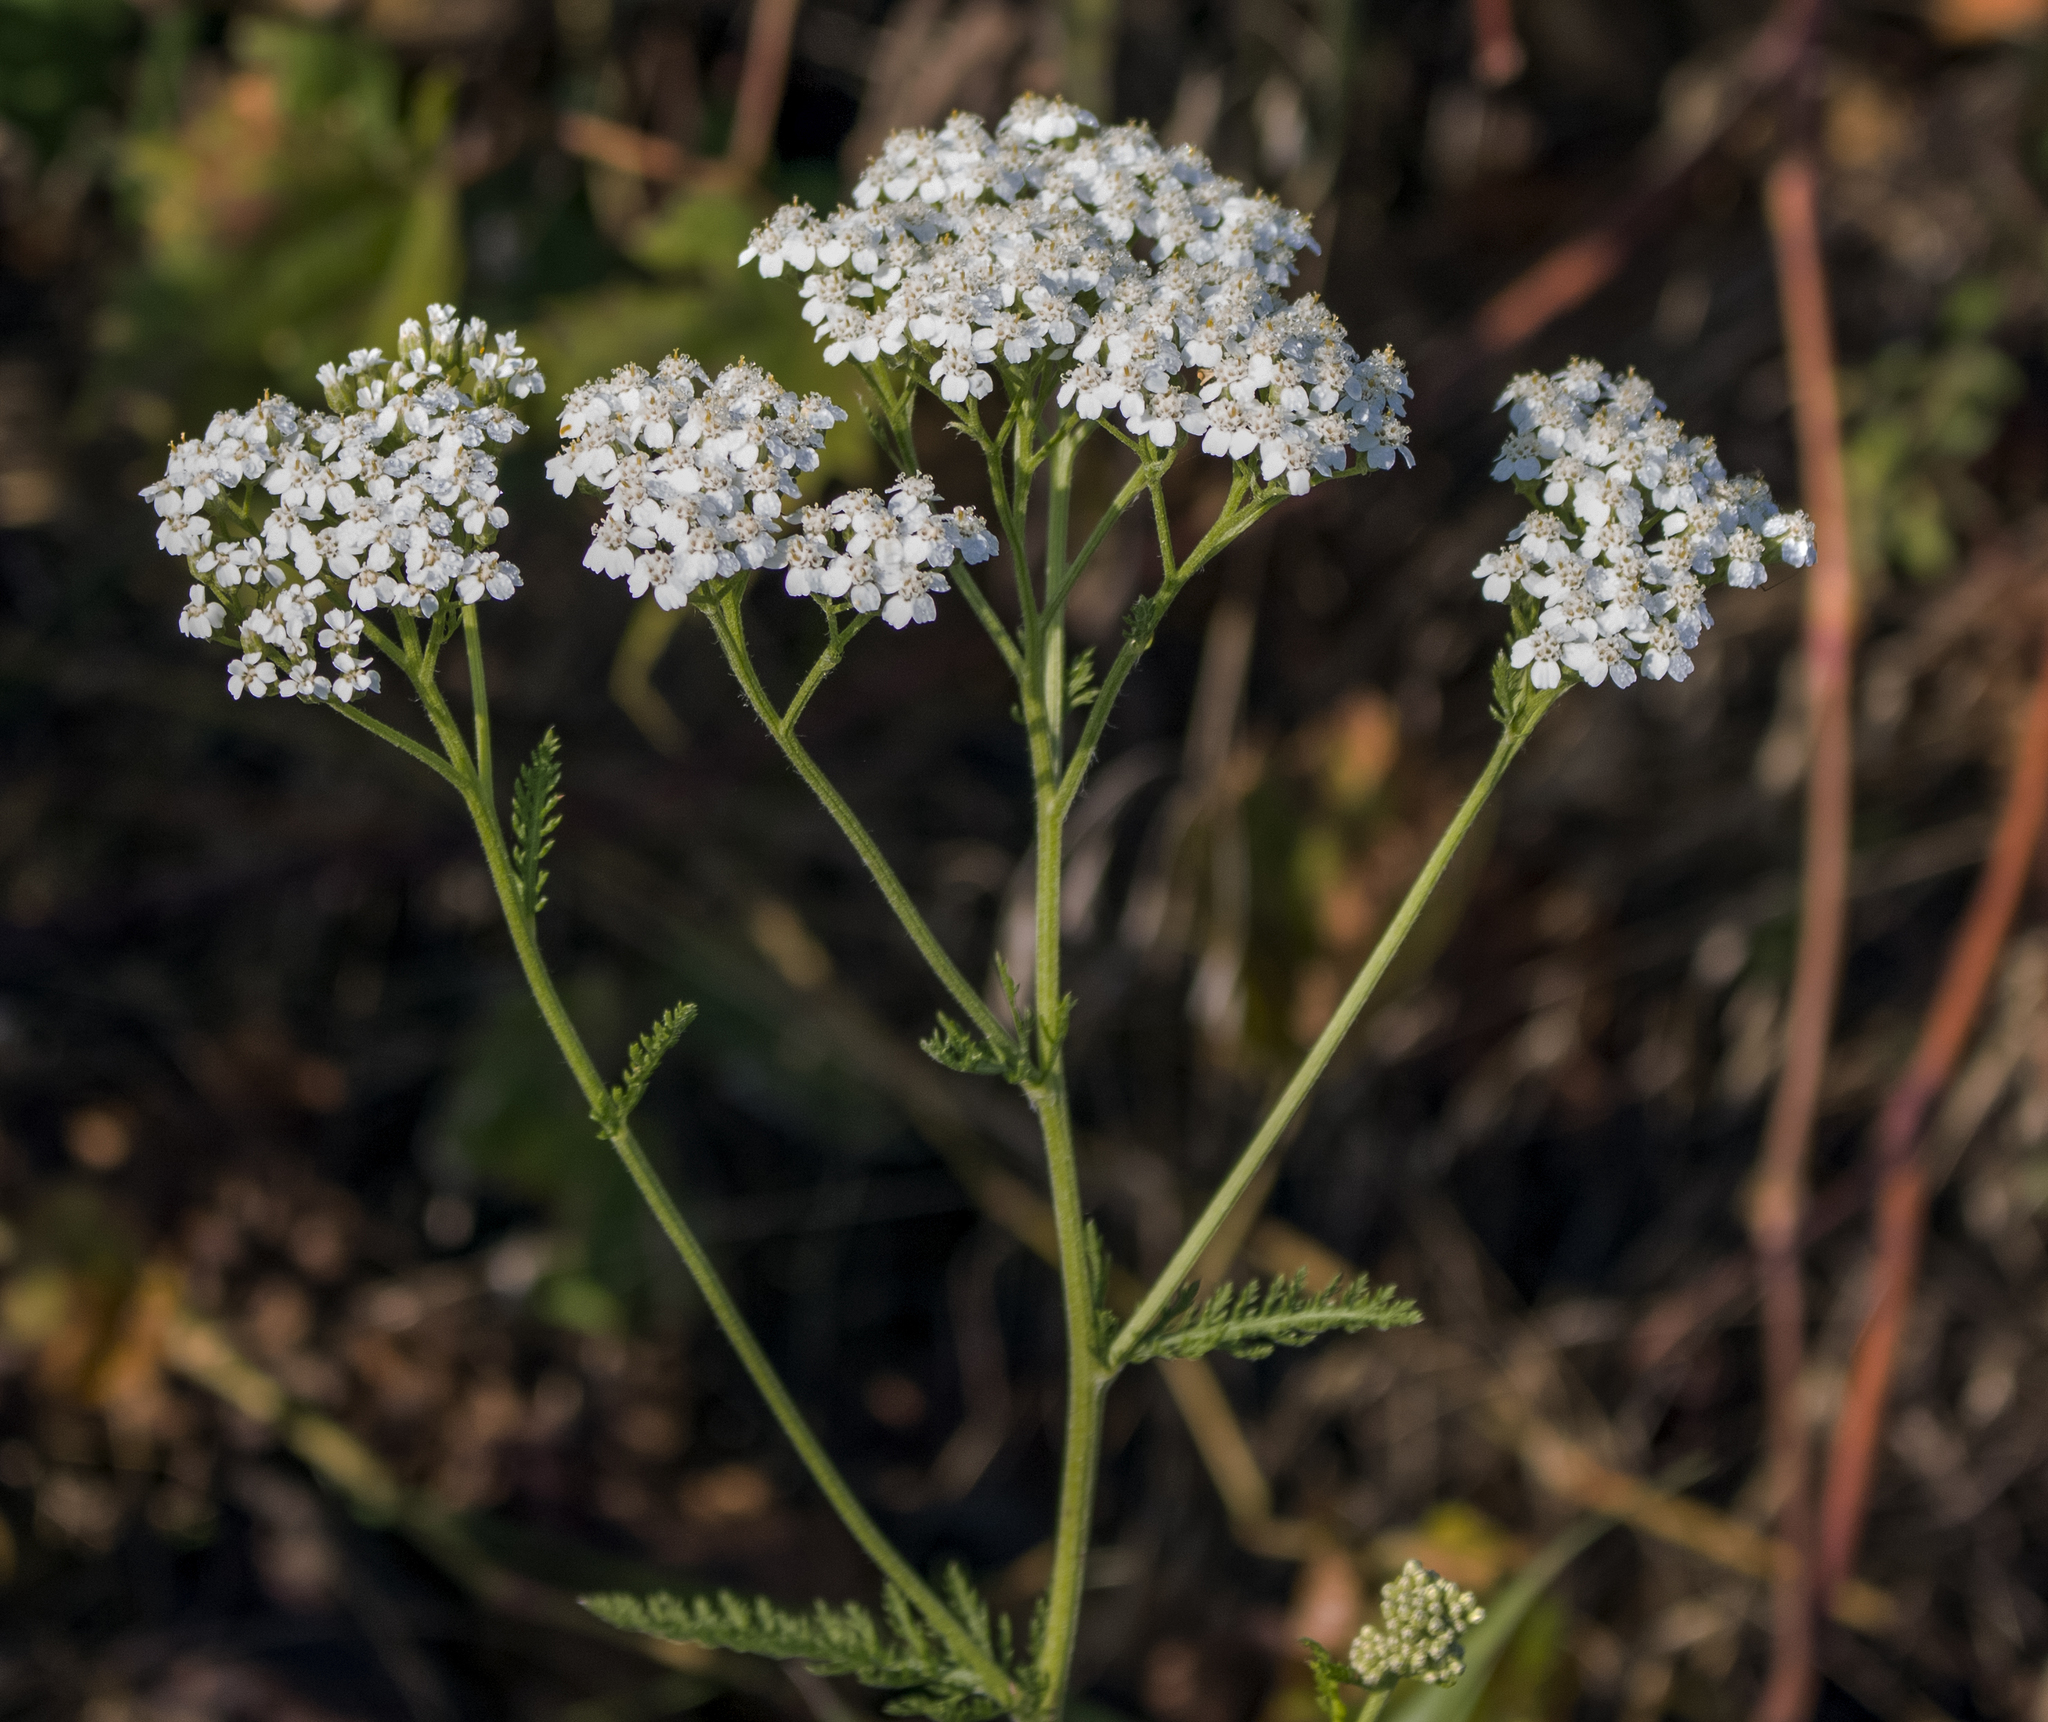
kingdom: Plantae
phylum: Tracheophyta
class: Magnoliopsida
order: Asterales
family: Asteraceae
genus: Achillea
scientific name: Achillea millefolium
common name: Yarrow
